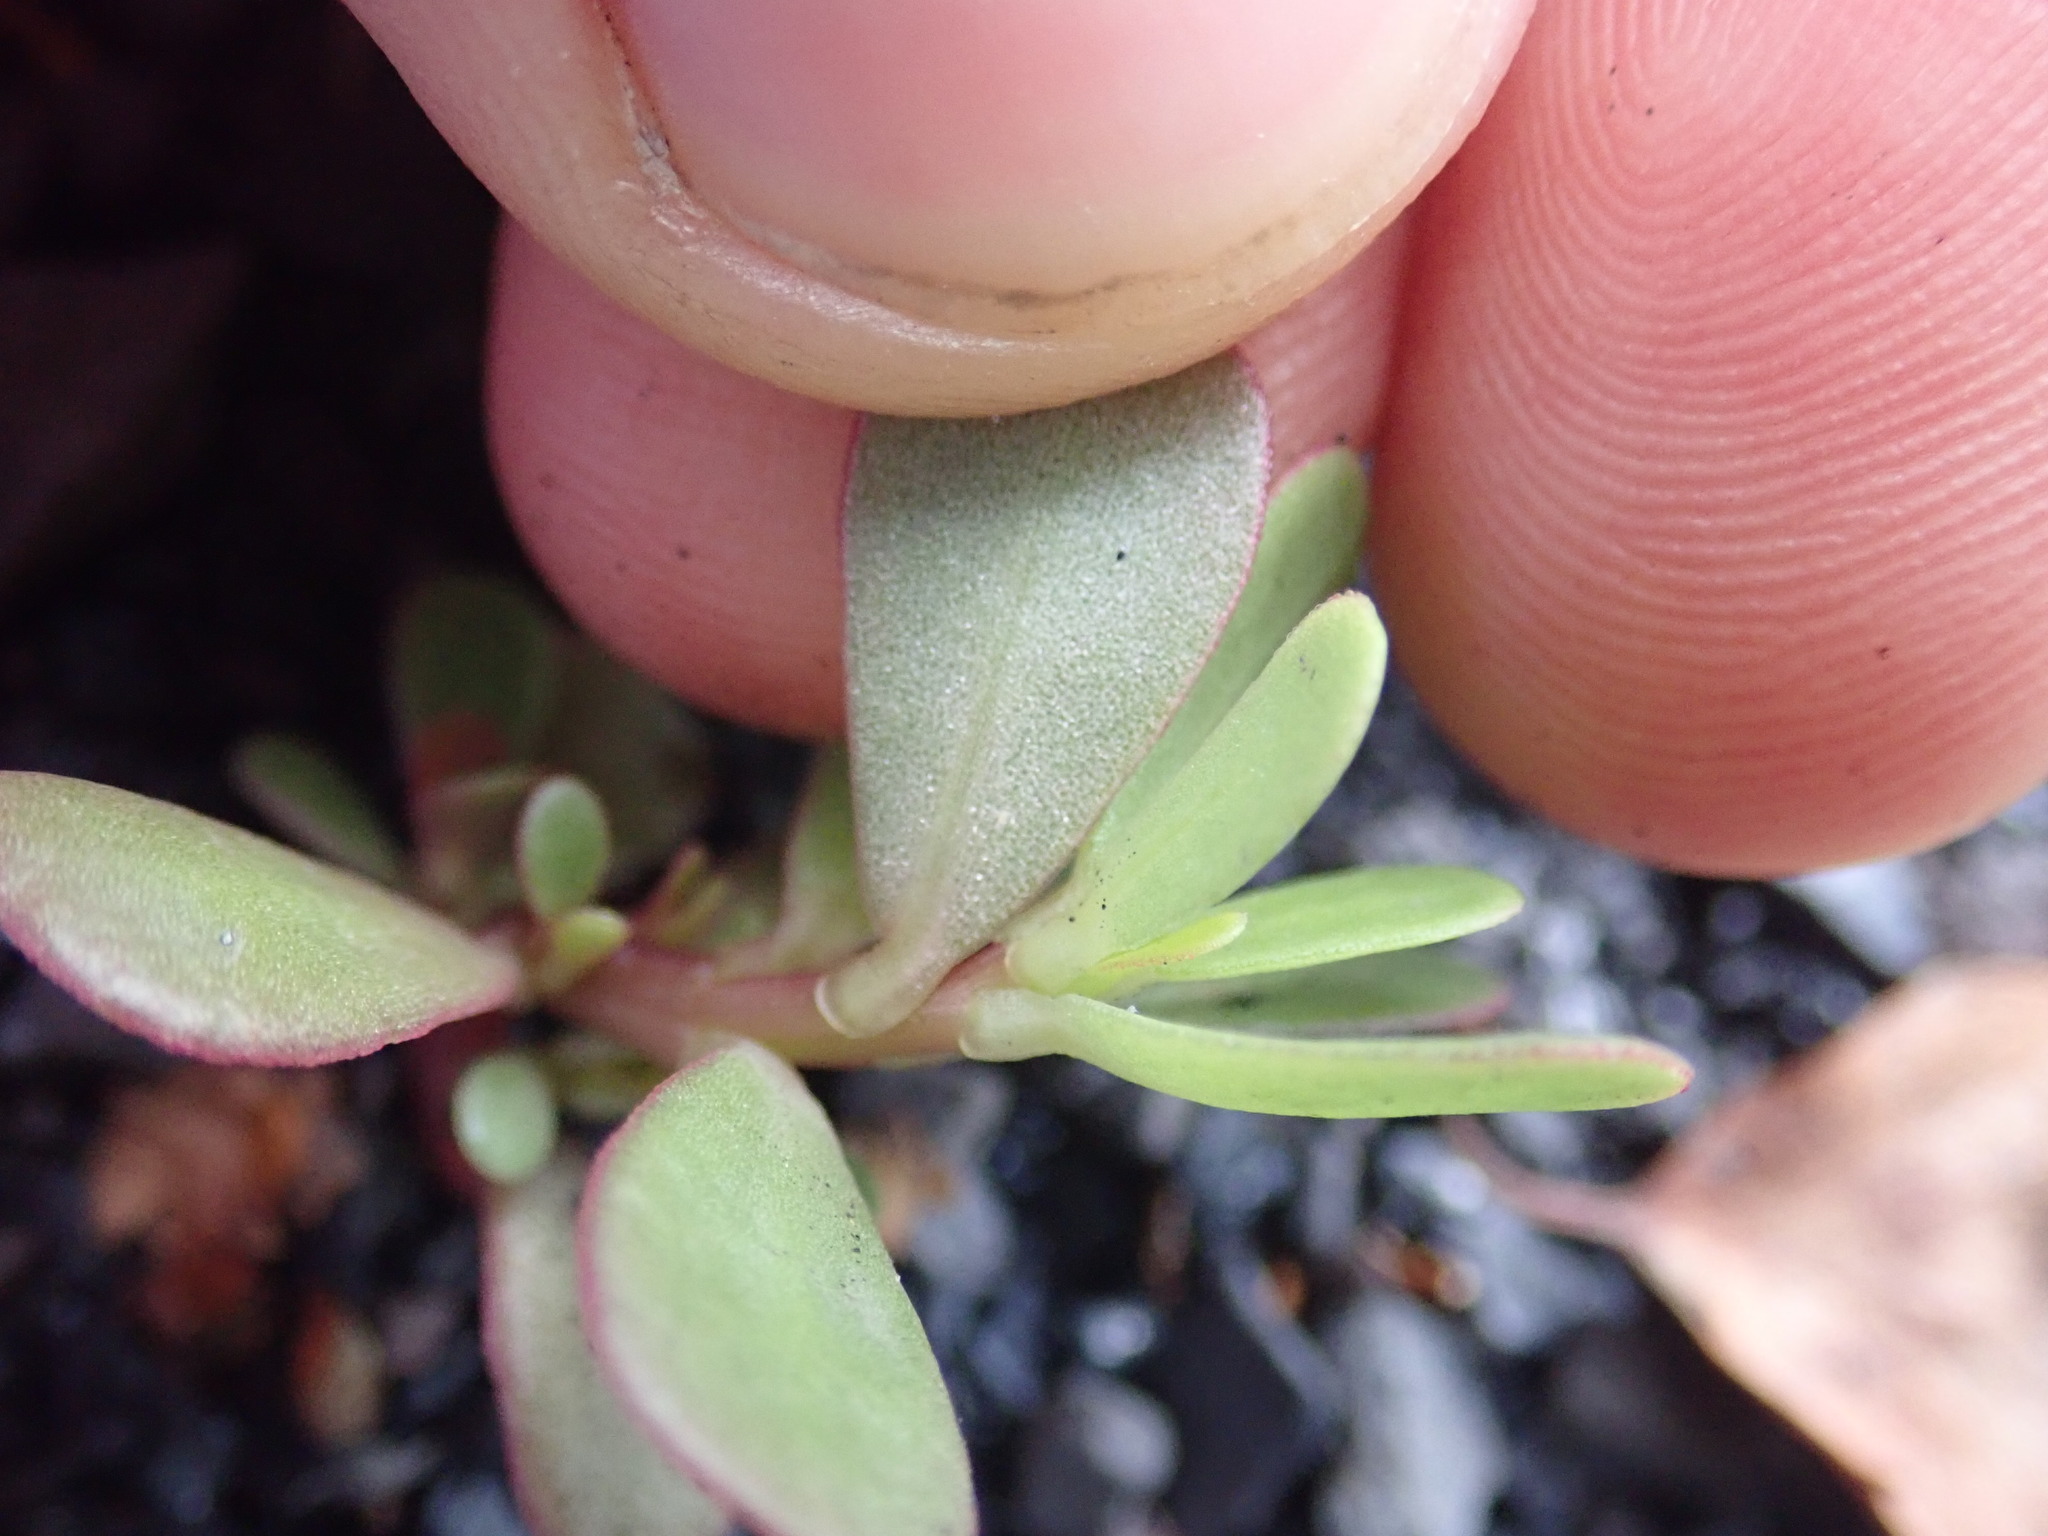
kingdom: Plantae
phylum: Tracheophyta
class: Magnoliopsida
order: Caryophyllales
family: Portulacaceae
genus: Portulaca
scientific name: Portulaca oleracea
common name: Common purslane
